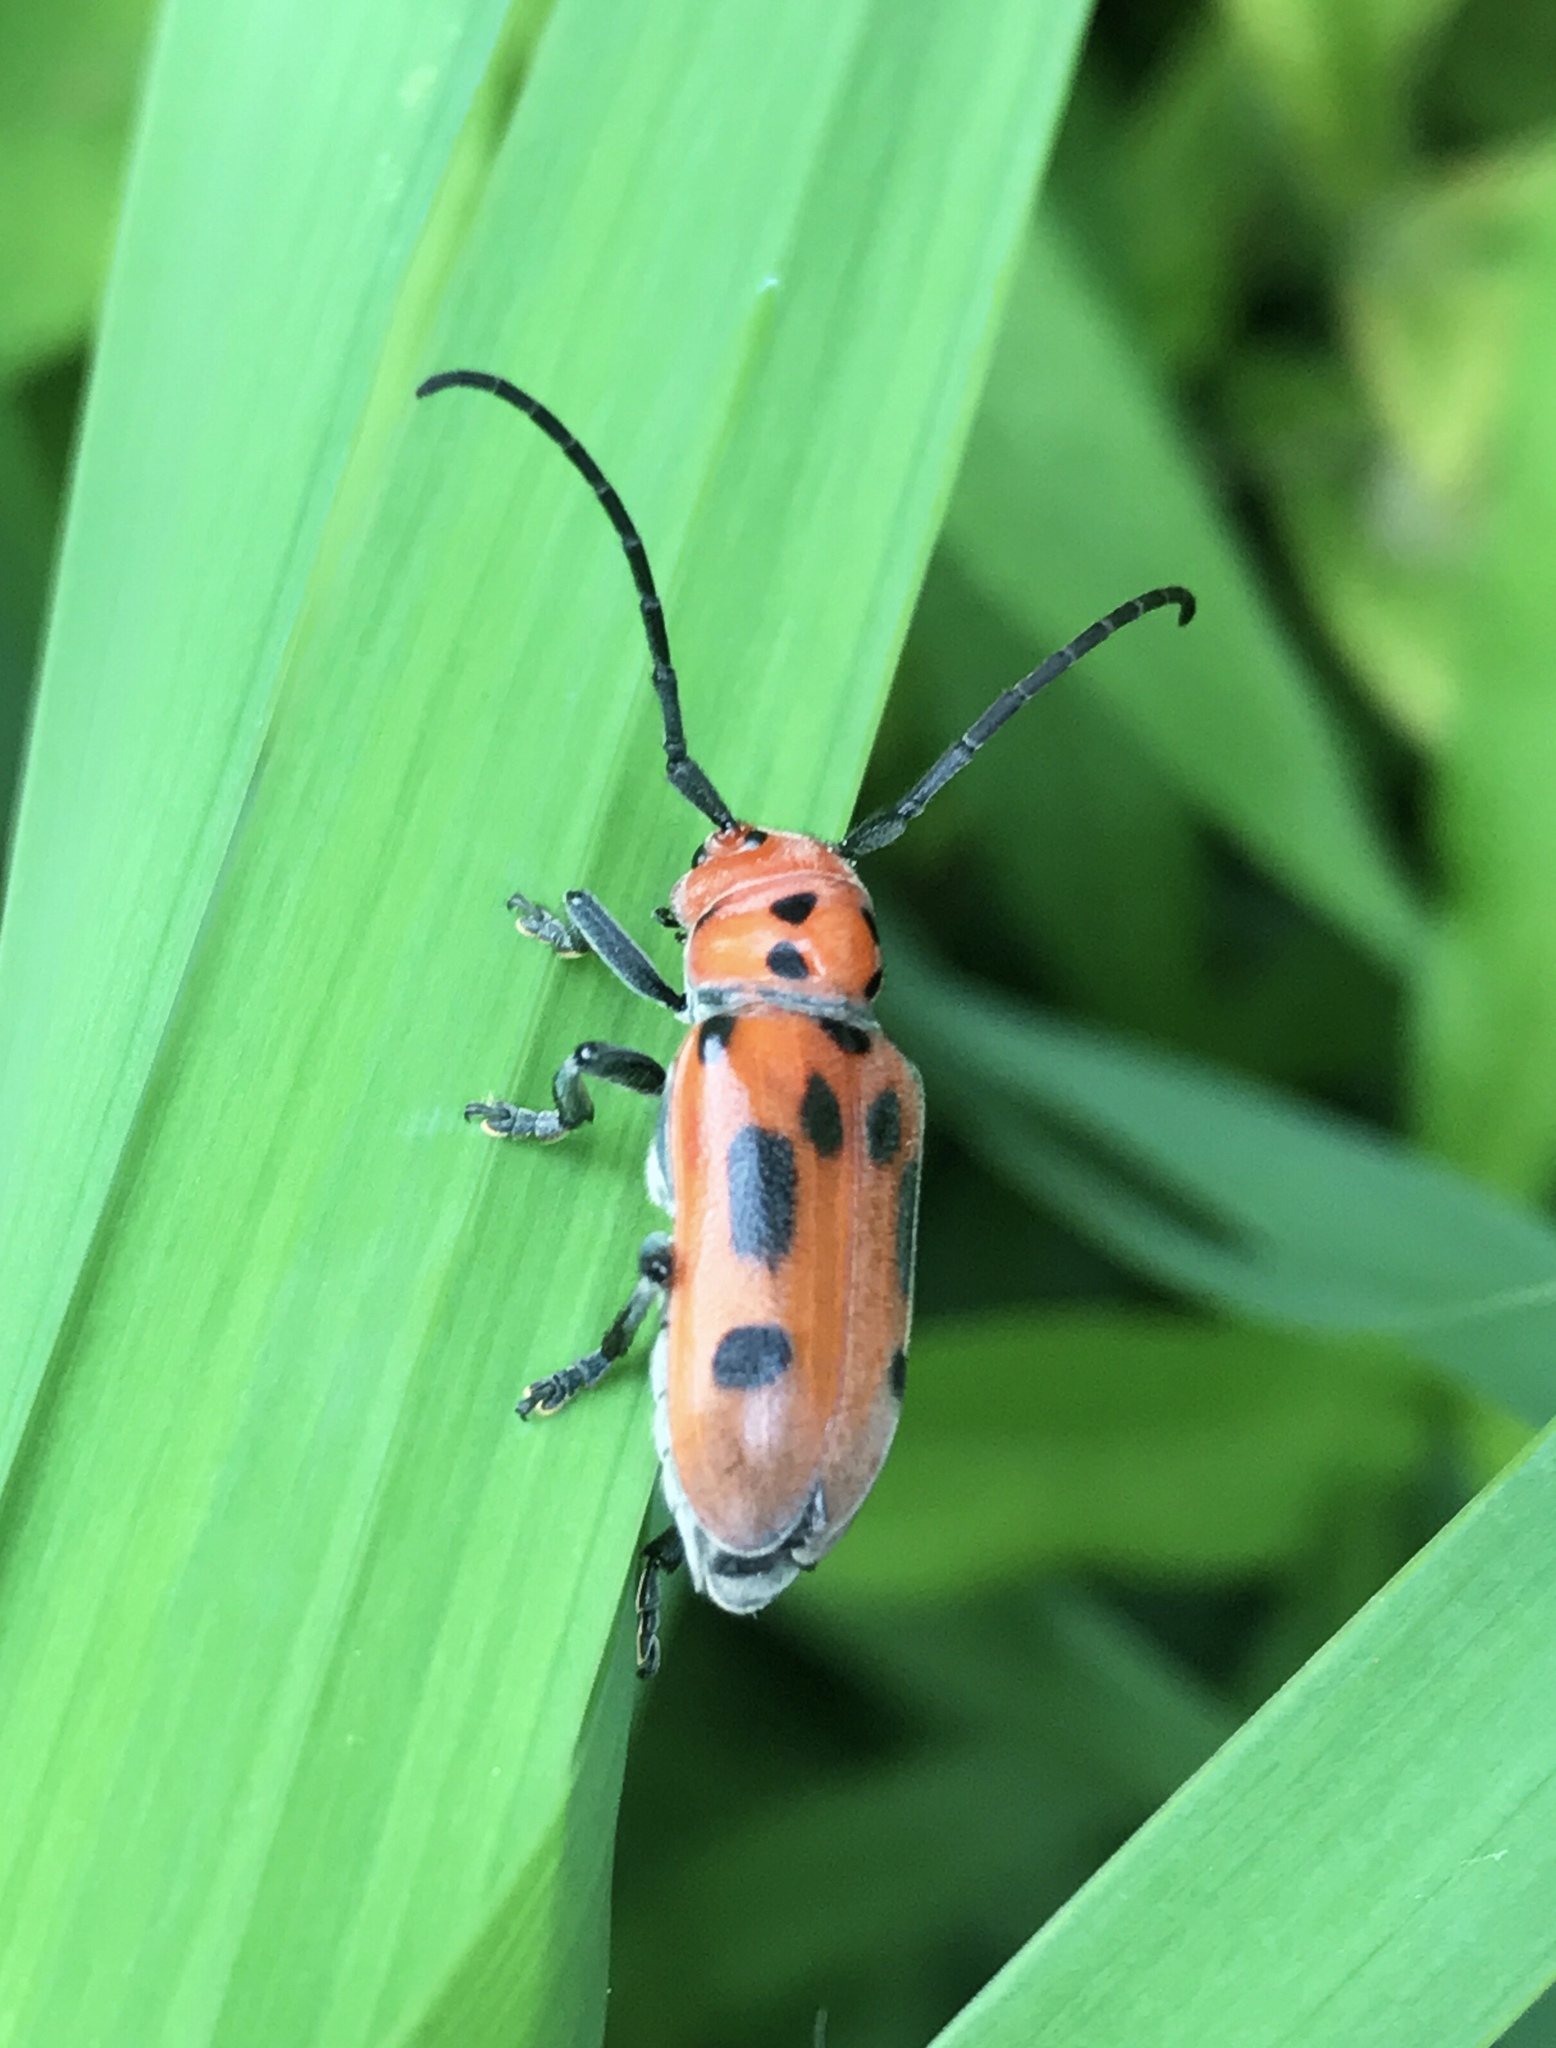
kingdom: Animalia
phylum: Arthropoda
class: Insecta
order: Coleoptera
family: Cerambycidae
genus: Tetraopes
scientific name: Tetraopes tetrophthalmus
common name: Red milkweed beetle
